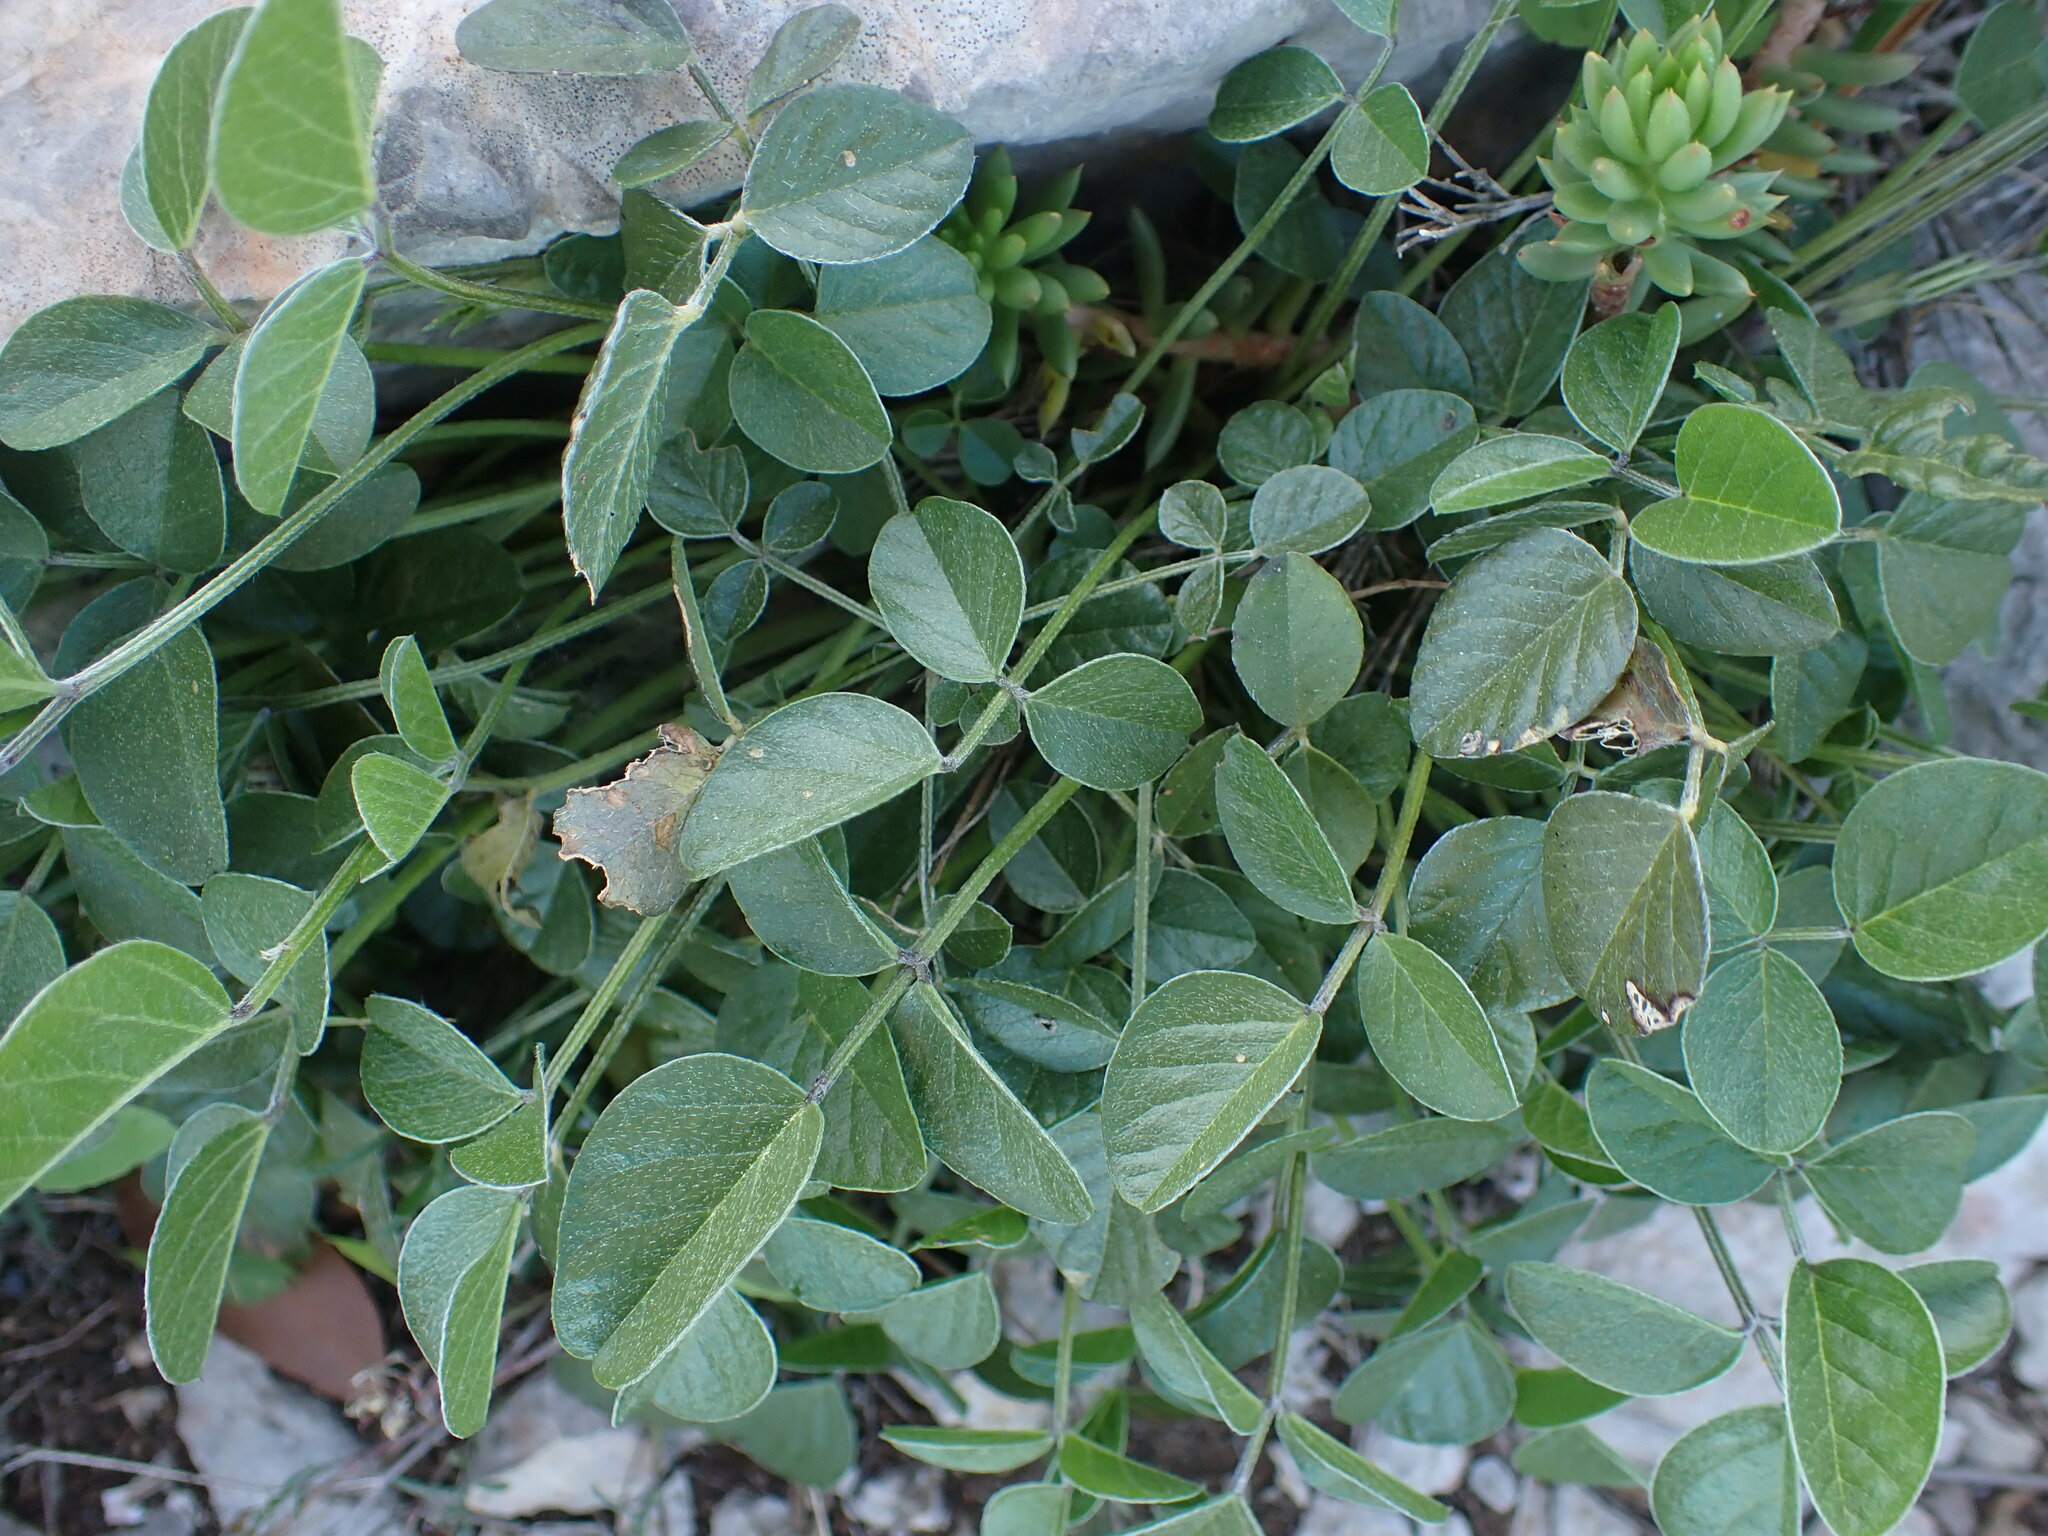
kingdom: Plantae
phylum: Tracheophyta
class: Magnoliopsida
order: Fabales
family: Fabaceae
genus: Bituminaria
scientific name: Bituminaria bituminosa
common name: Arabian pea
